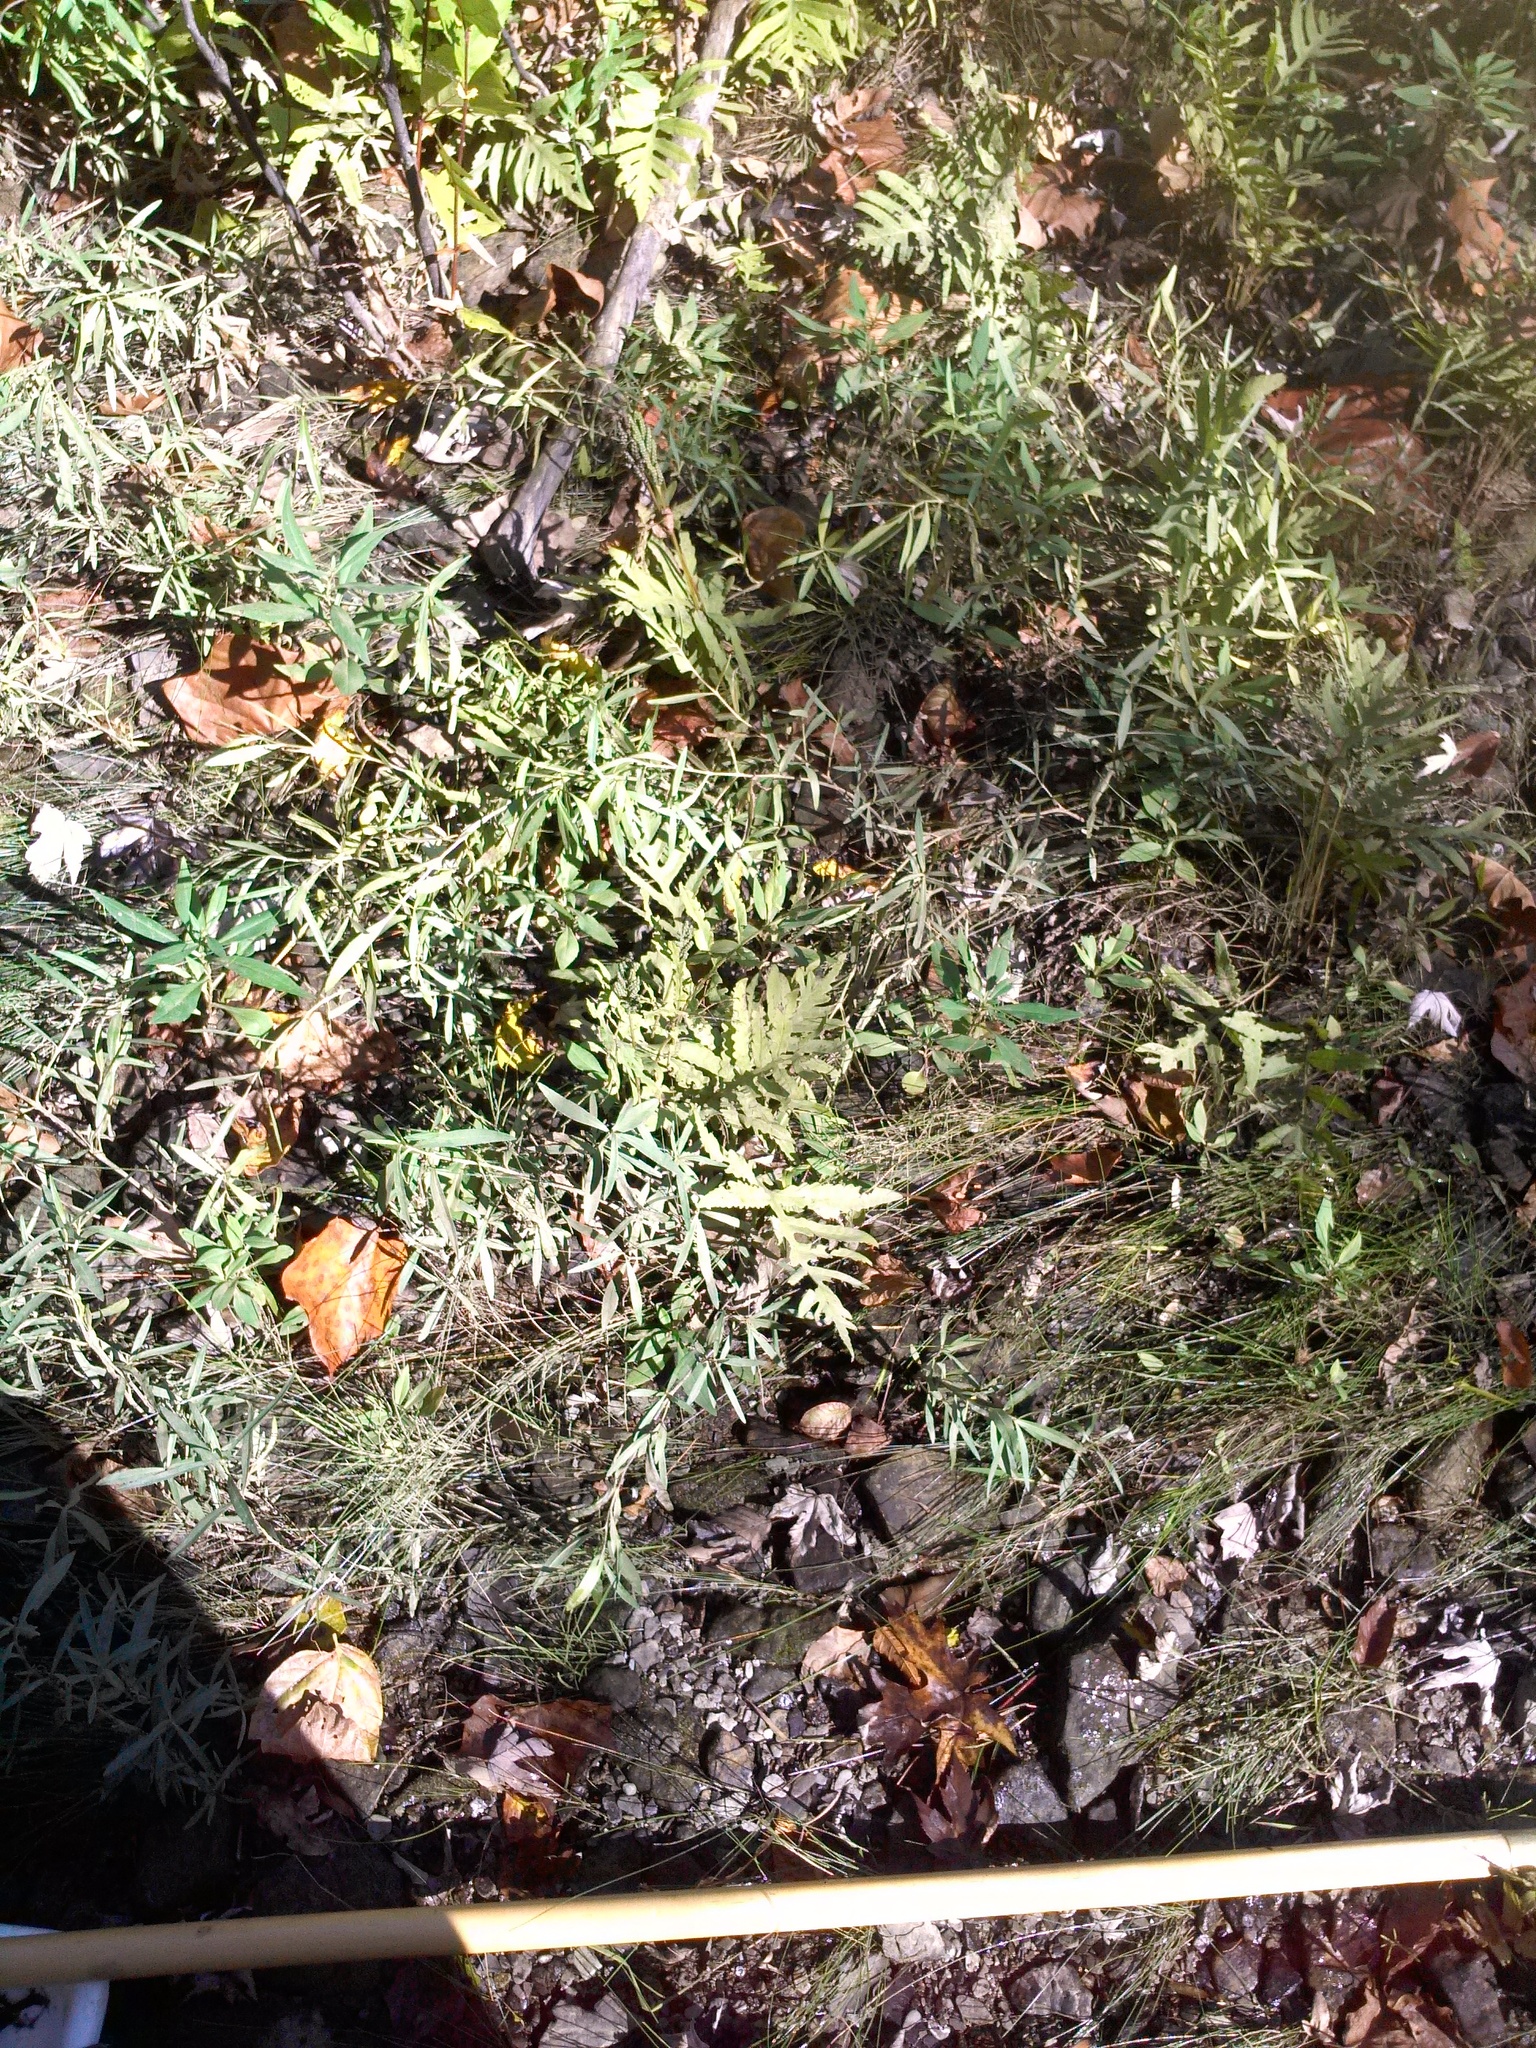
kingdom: Plantae
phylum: Tracheophyta
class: Polypodiopsida
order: Polypodiales
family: Onocleaceae
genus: Onoclea
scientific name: Onoclea sensibilis
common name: Sensitive fern
